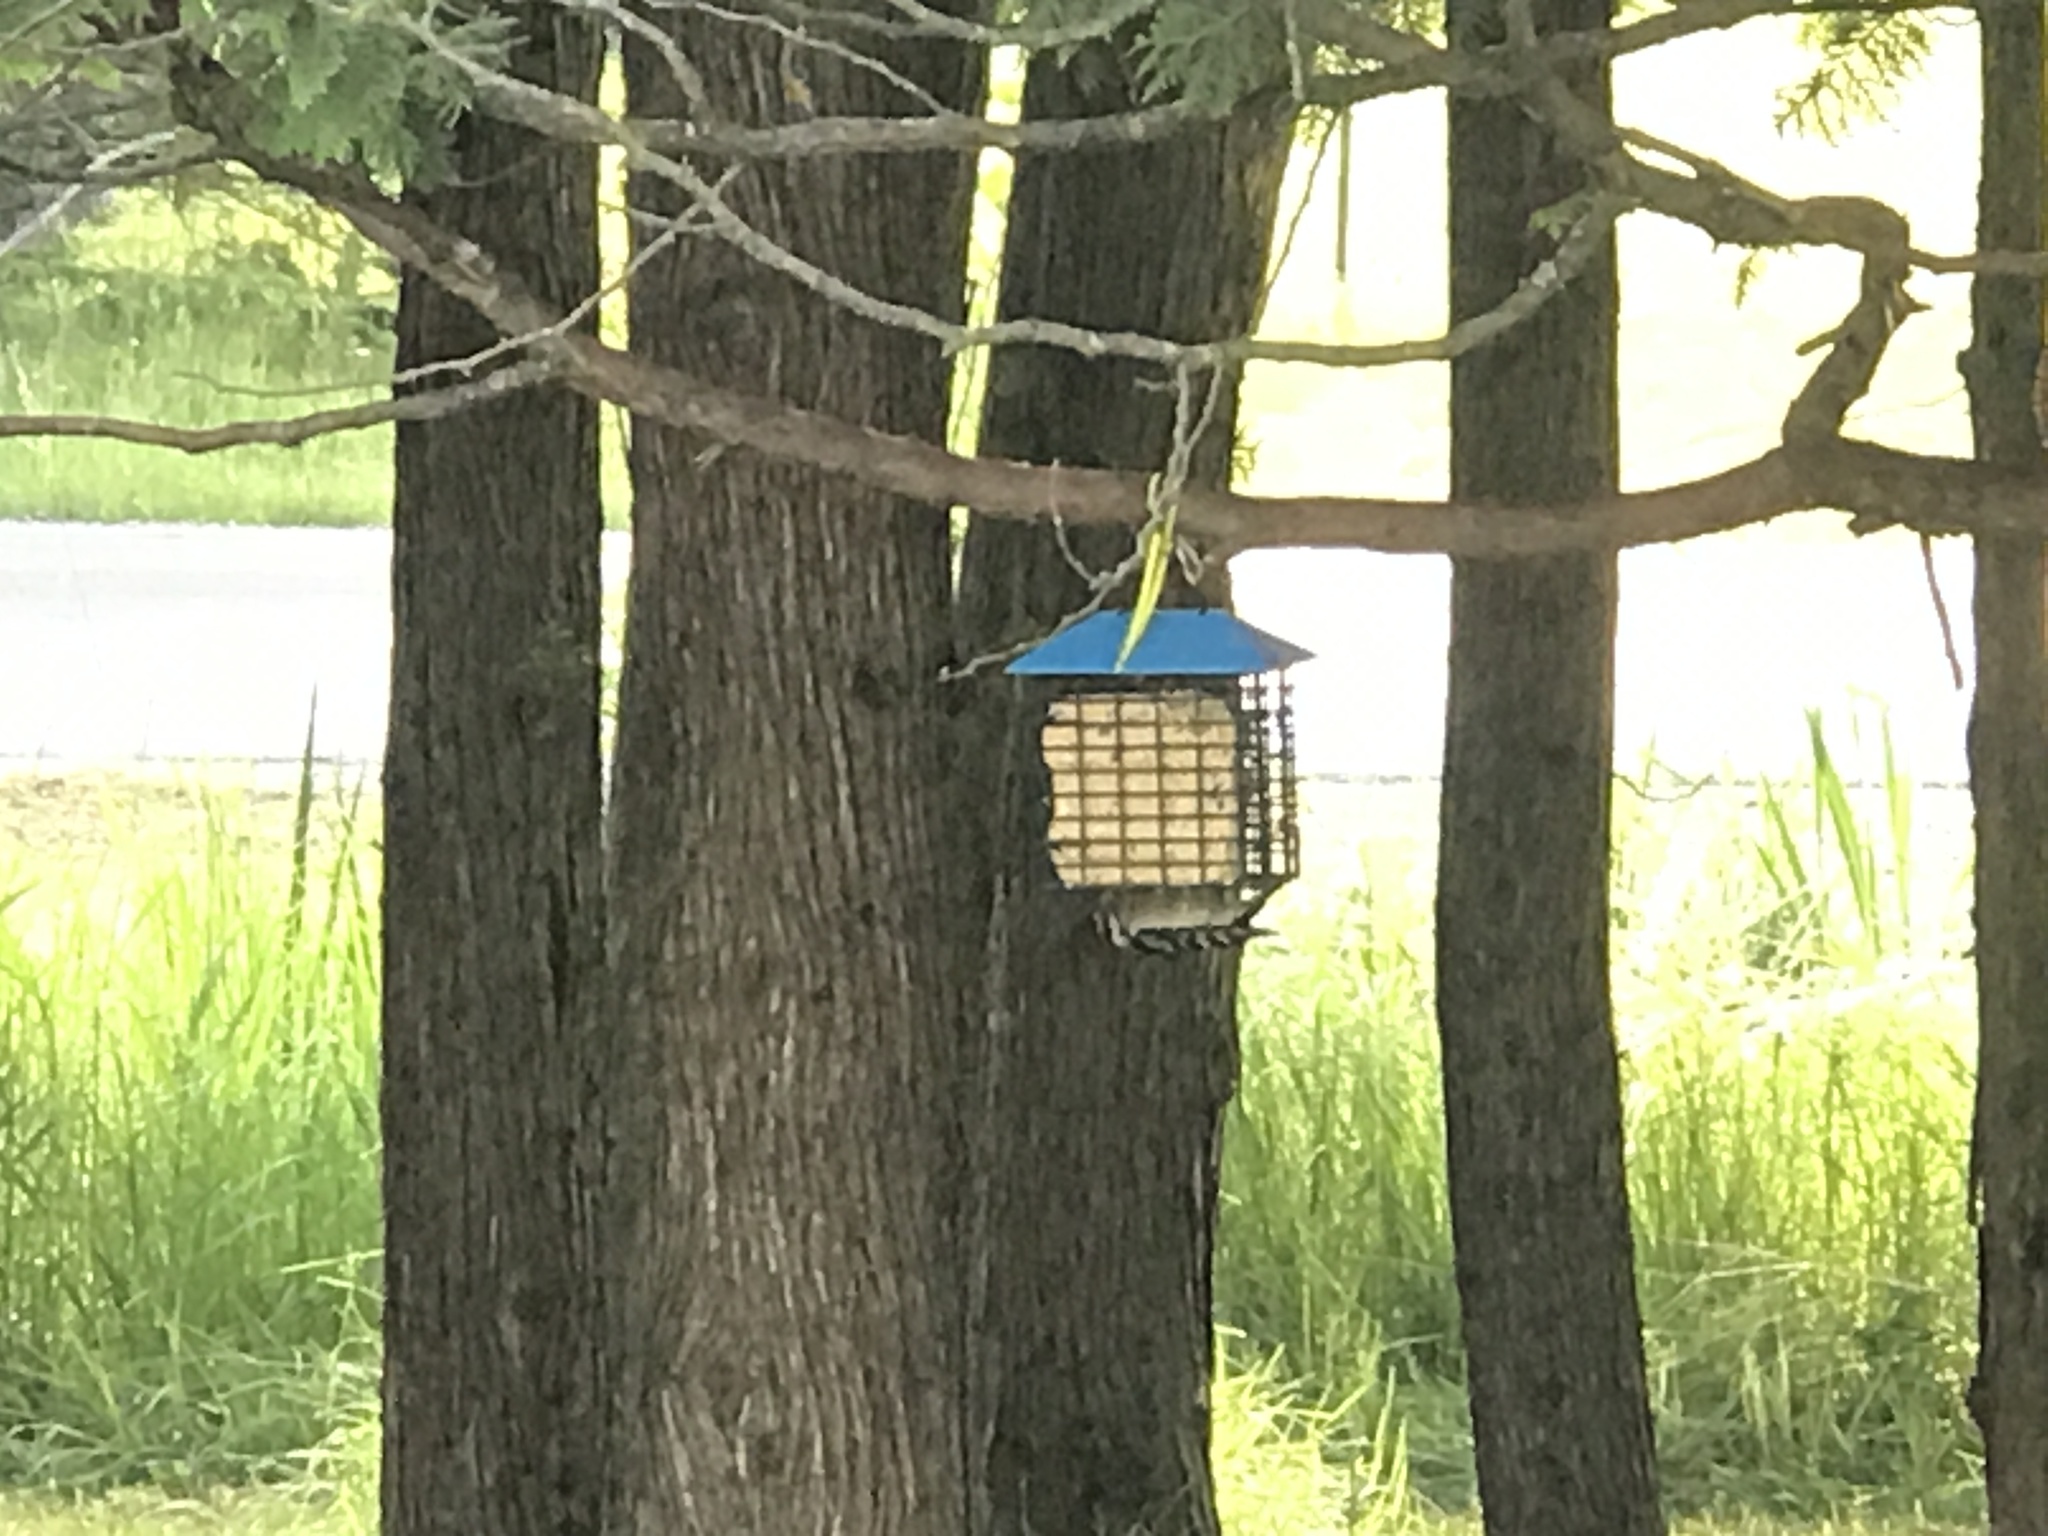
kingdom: Animalia
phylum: Chordata
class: Aves
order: Piciformes
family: Picidae
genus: Dryobates
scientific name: Dryobates pubescens
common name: Downy woodpecker
